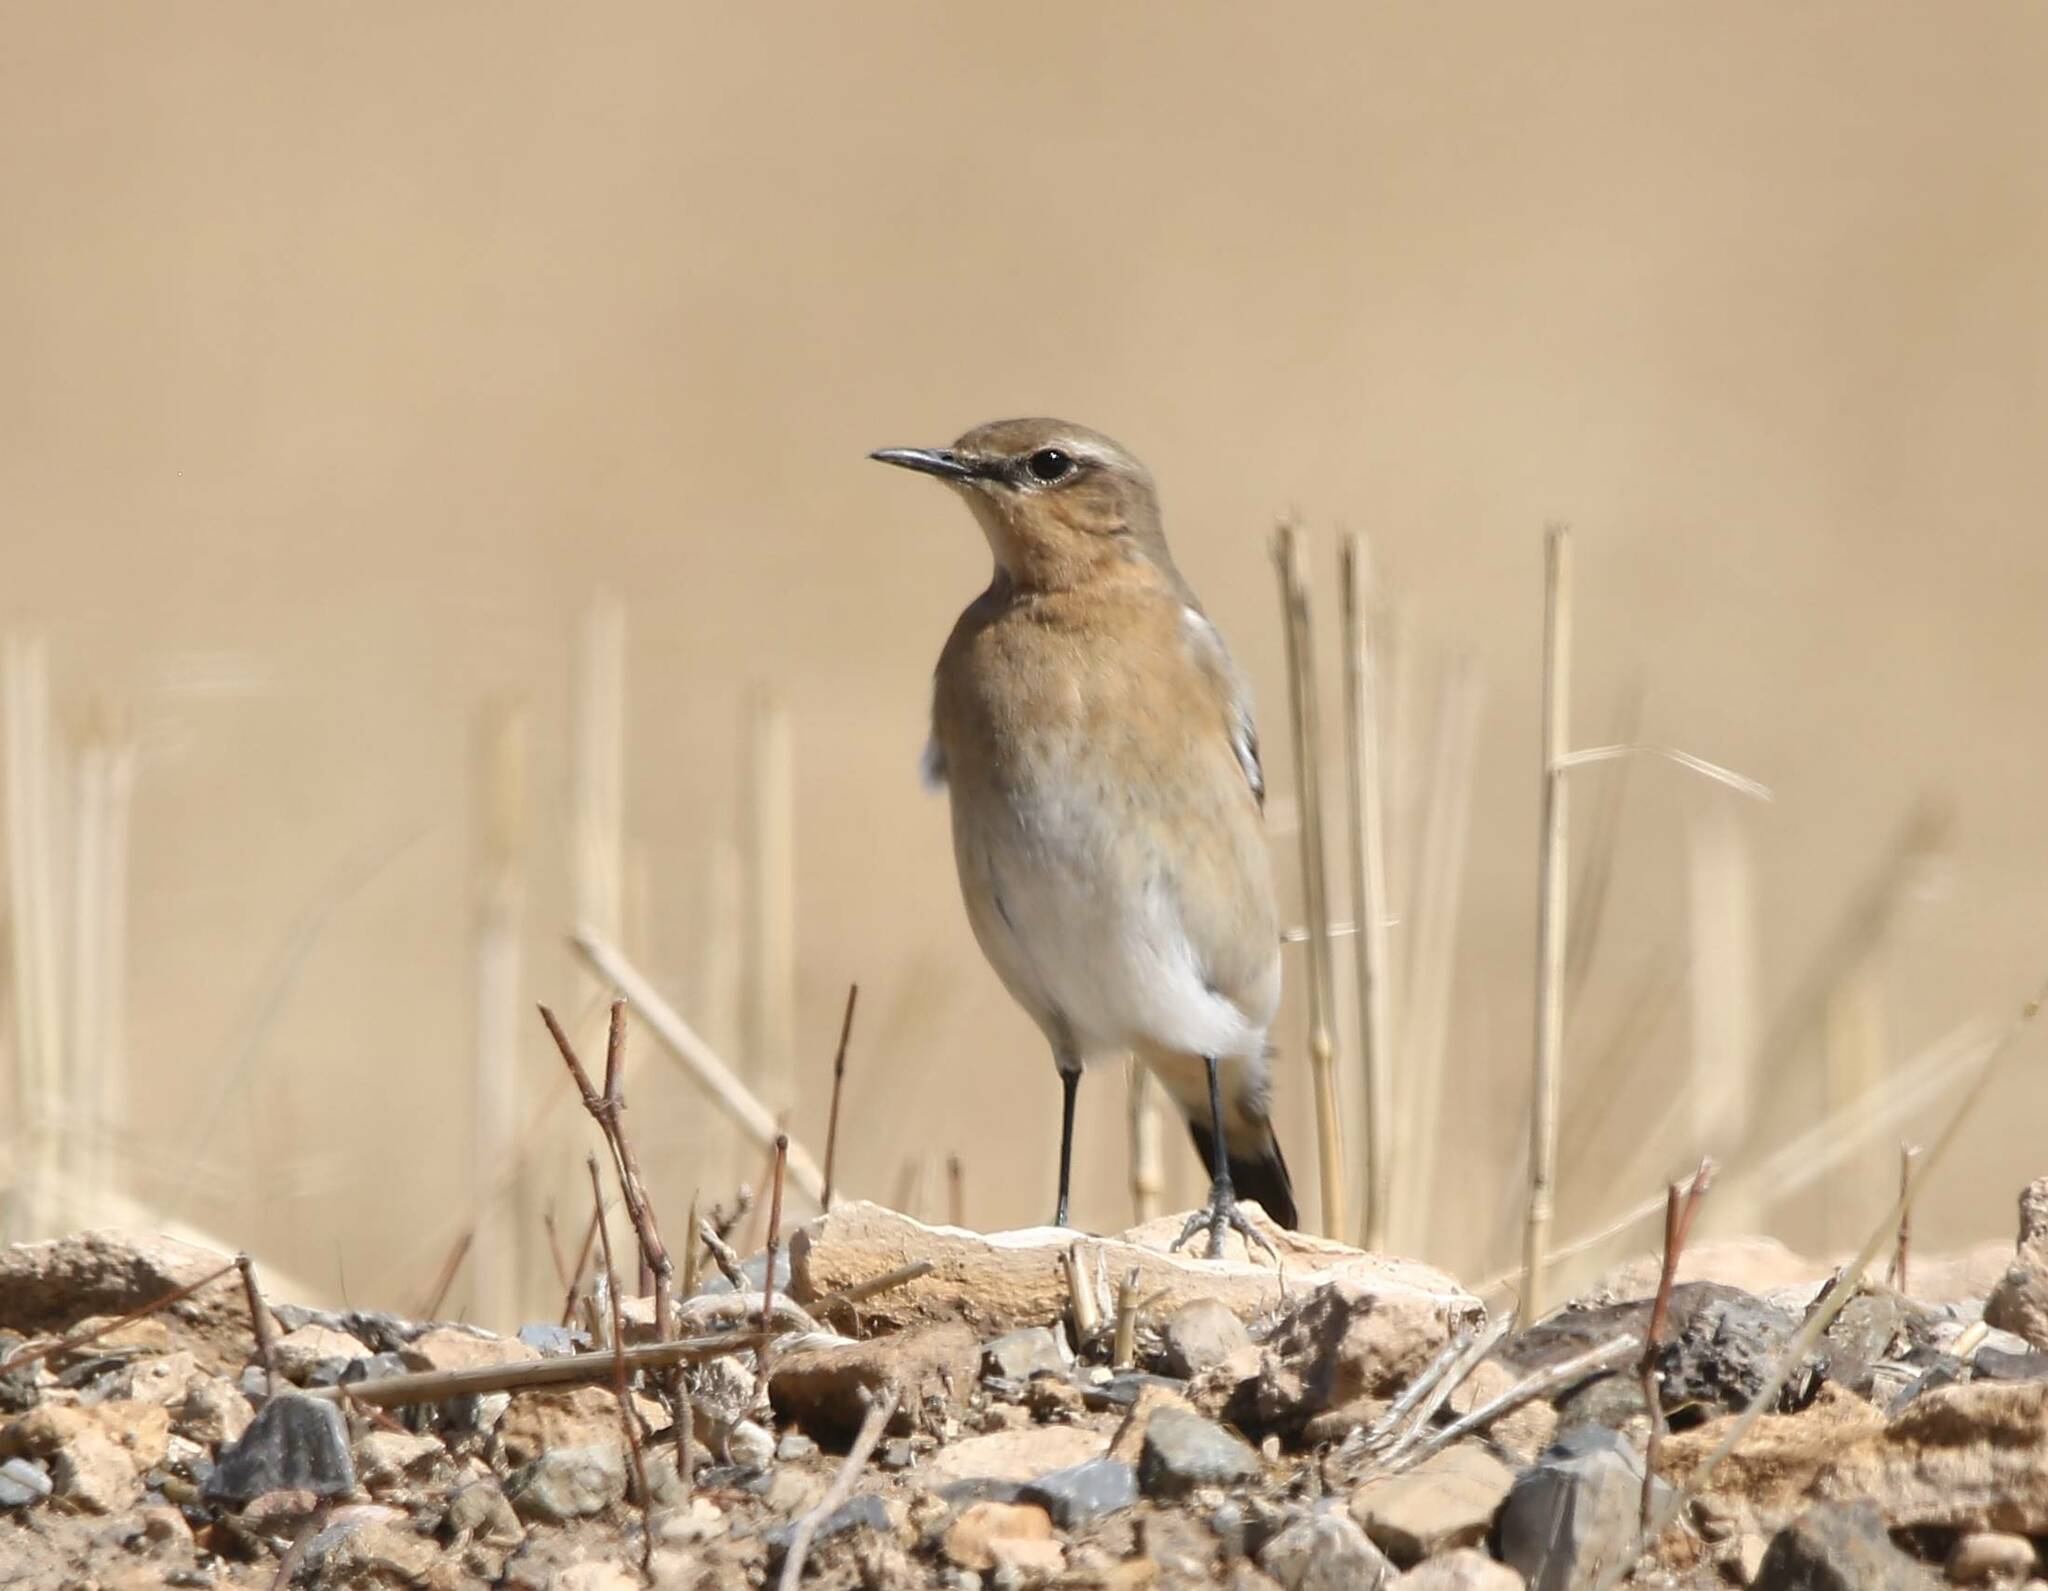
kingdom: Animalia
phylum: Chordata
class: Aves
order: Passeriformes
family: Muscicapidae
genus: Oenanthe
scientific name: Oenanthe oenanthe
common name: Northern wheatear
